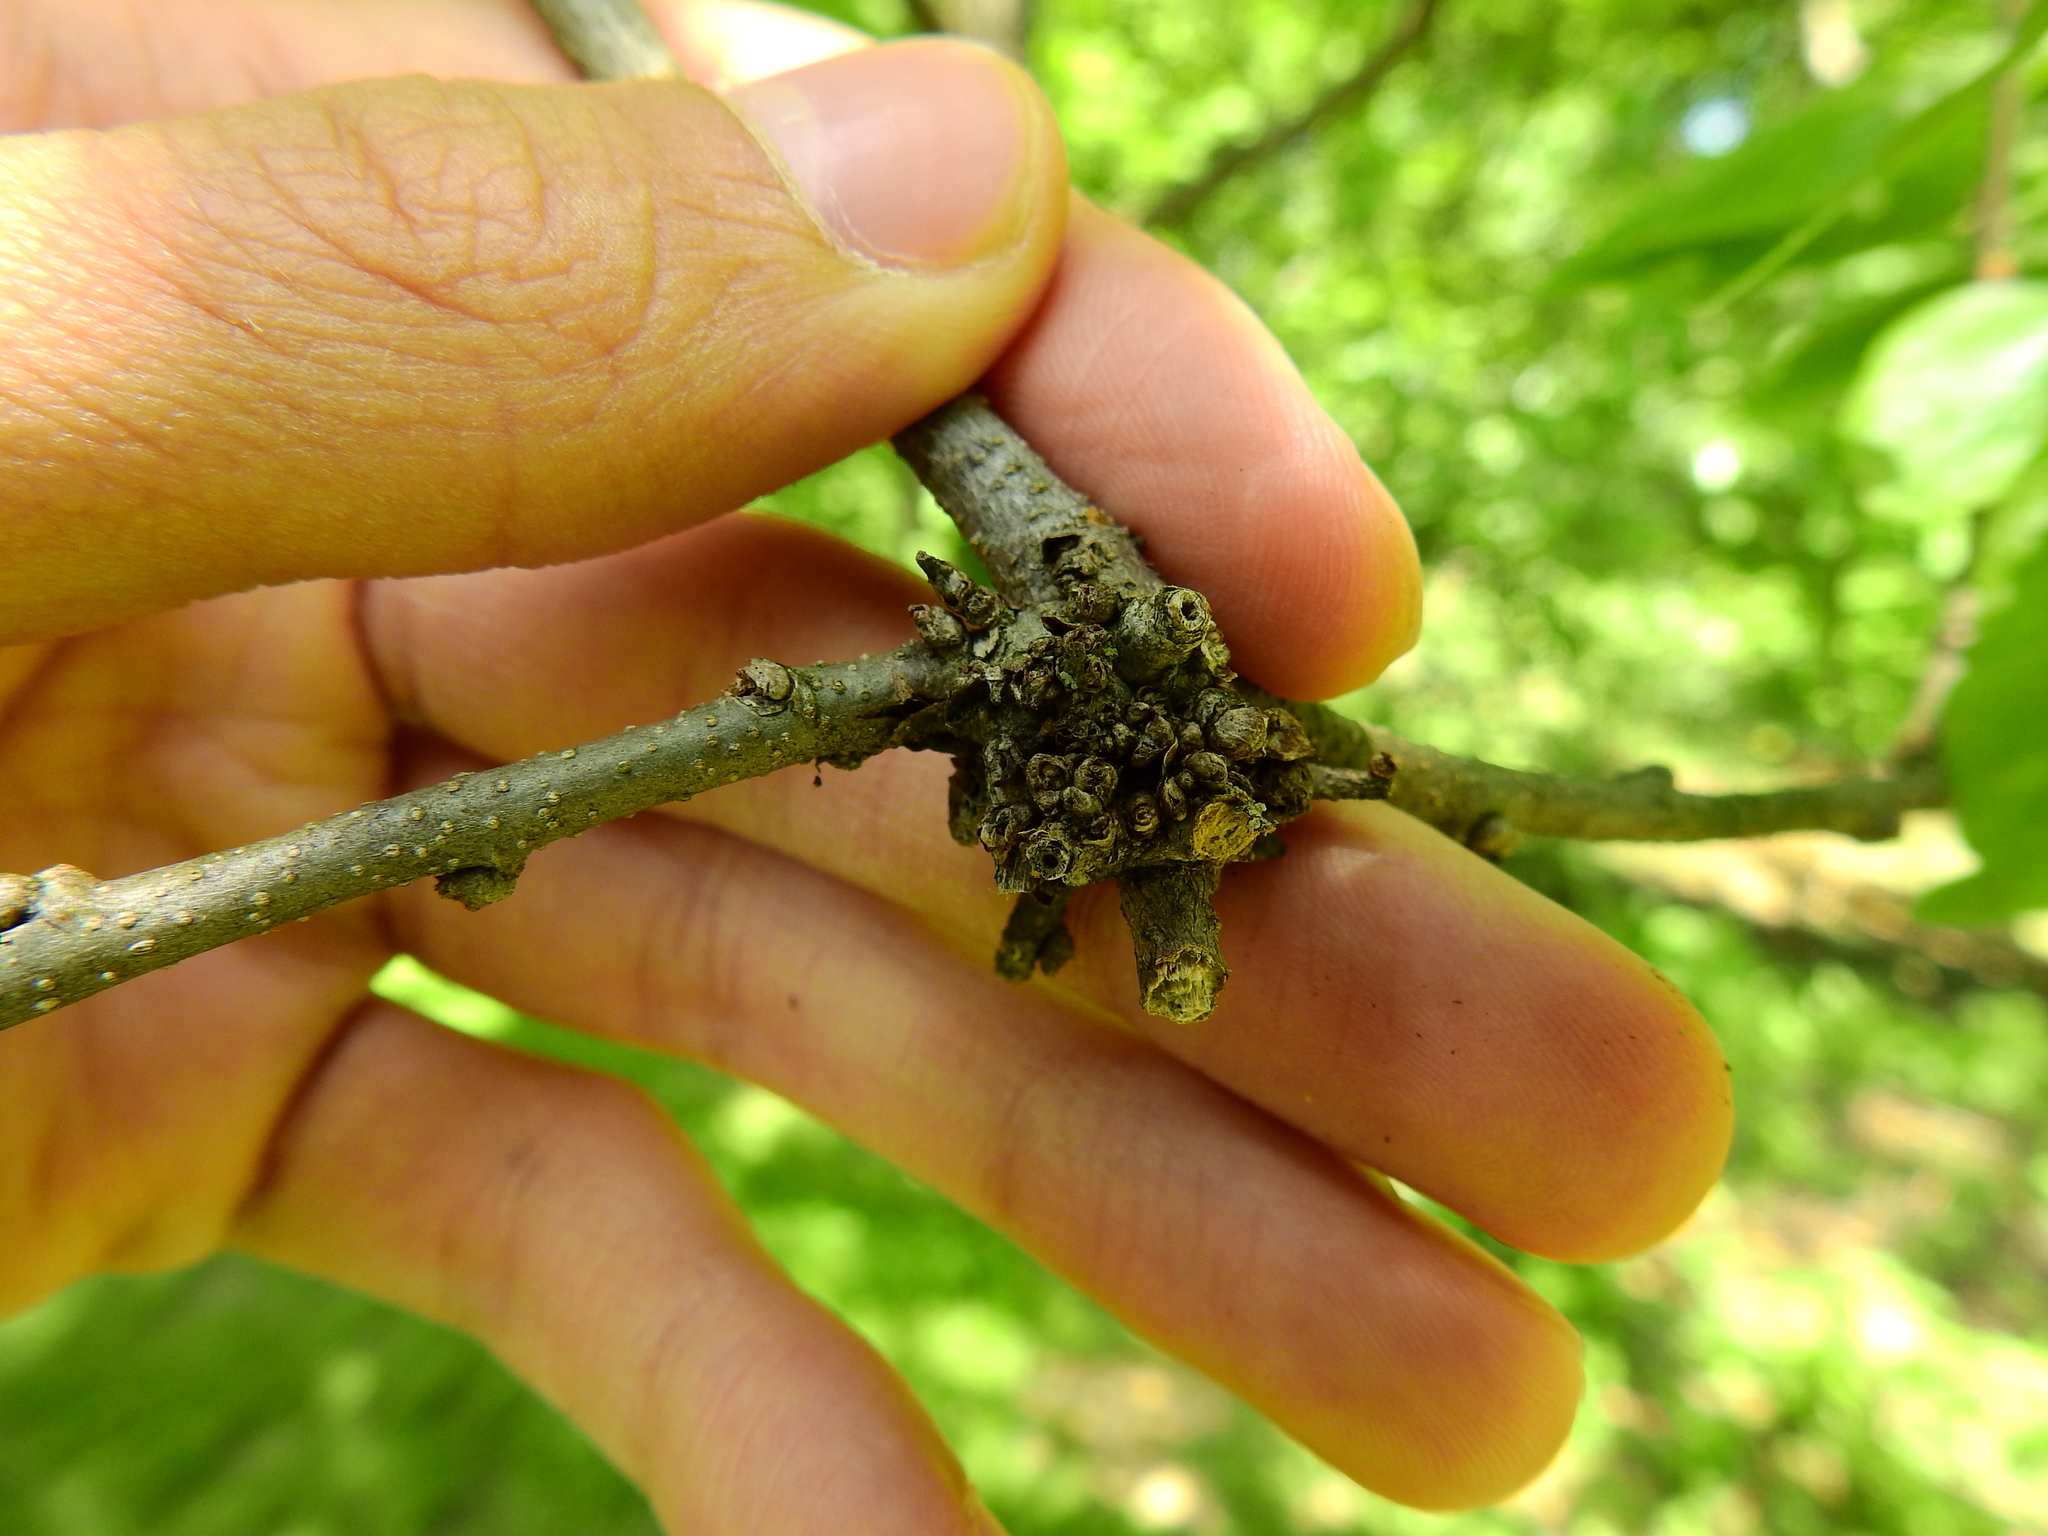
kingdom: Animalia
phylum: Arthropoda
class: Arachnida
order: Trombidiformes
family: Eriophyidae
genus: Aceria
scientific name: Aceria
